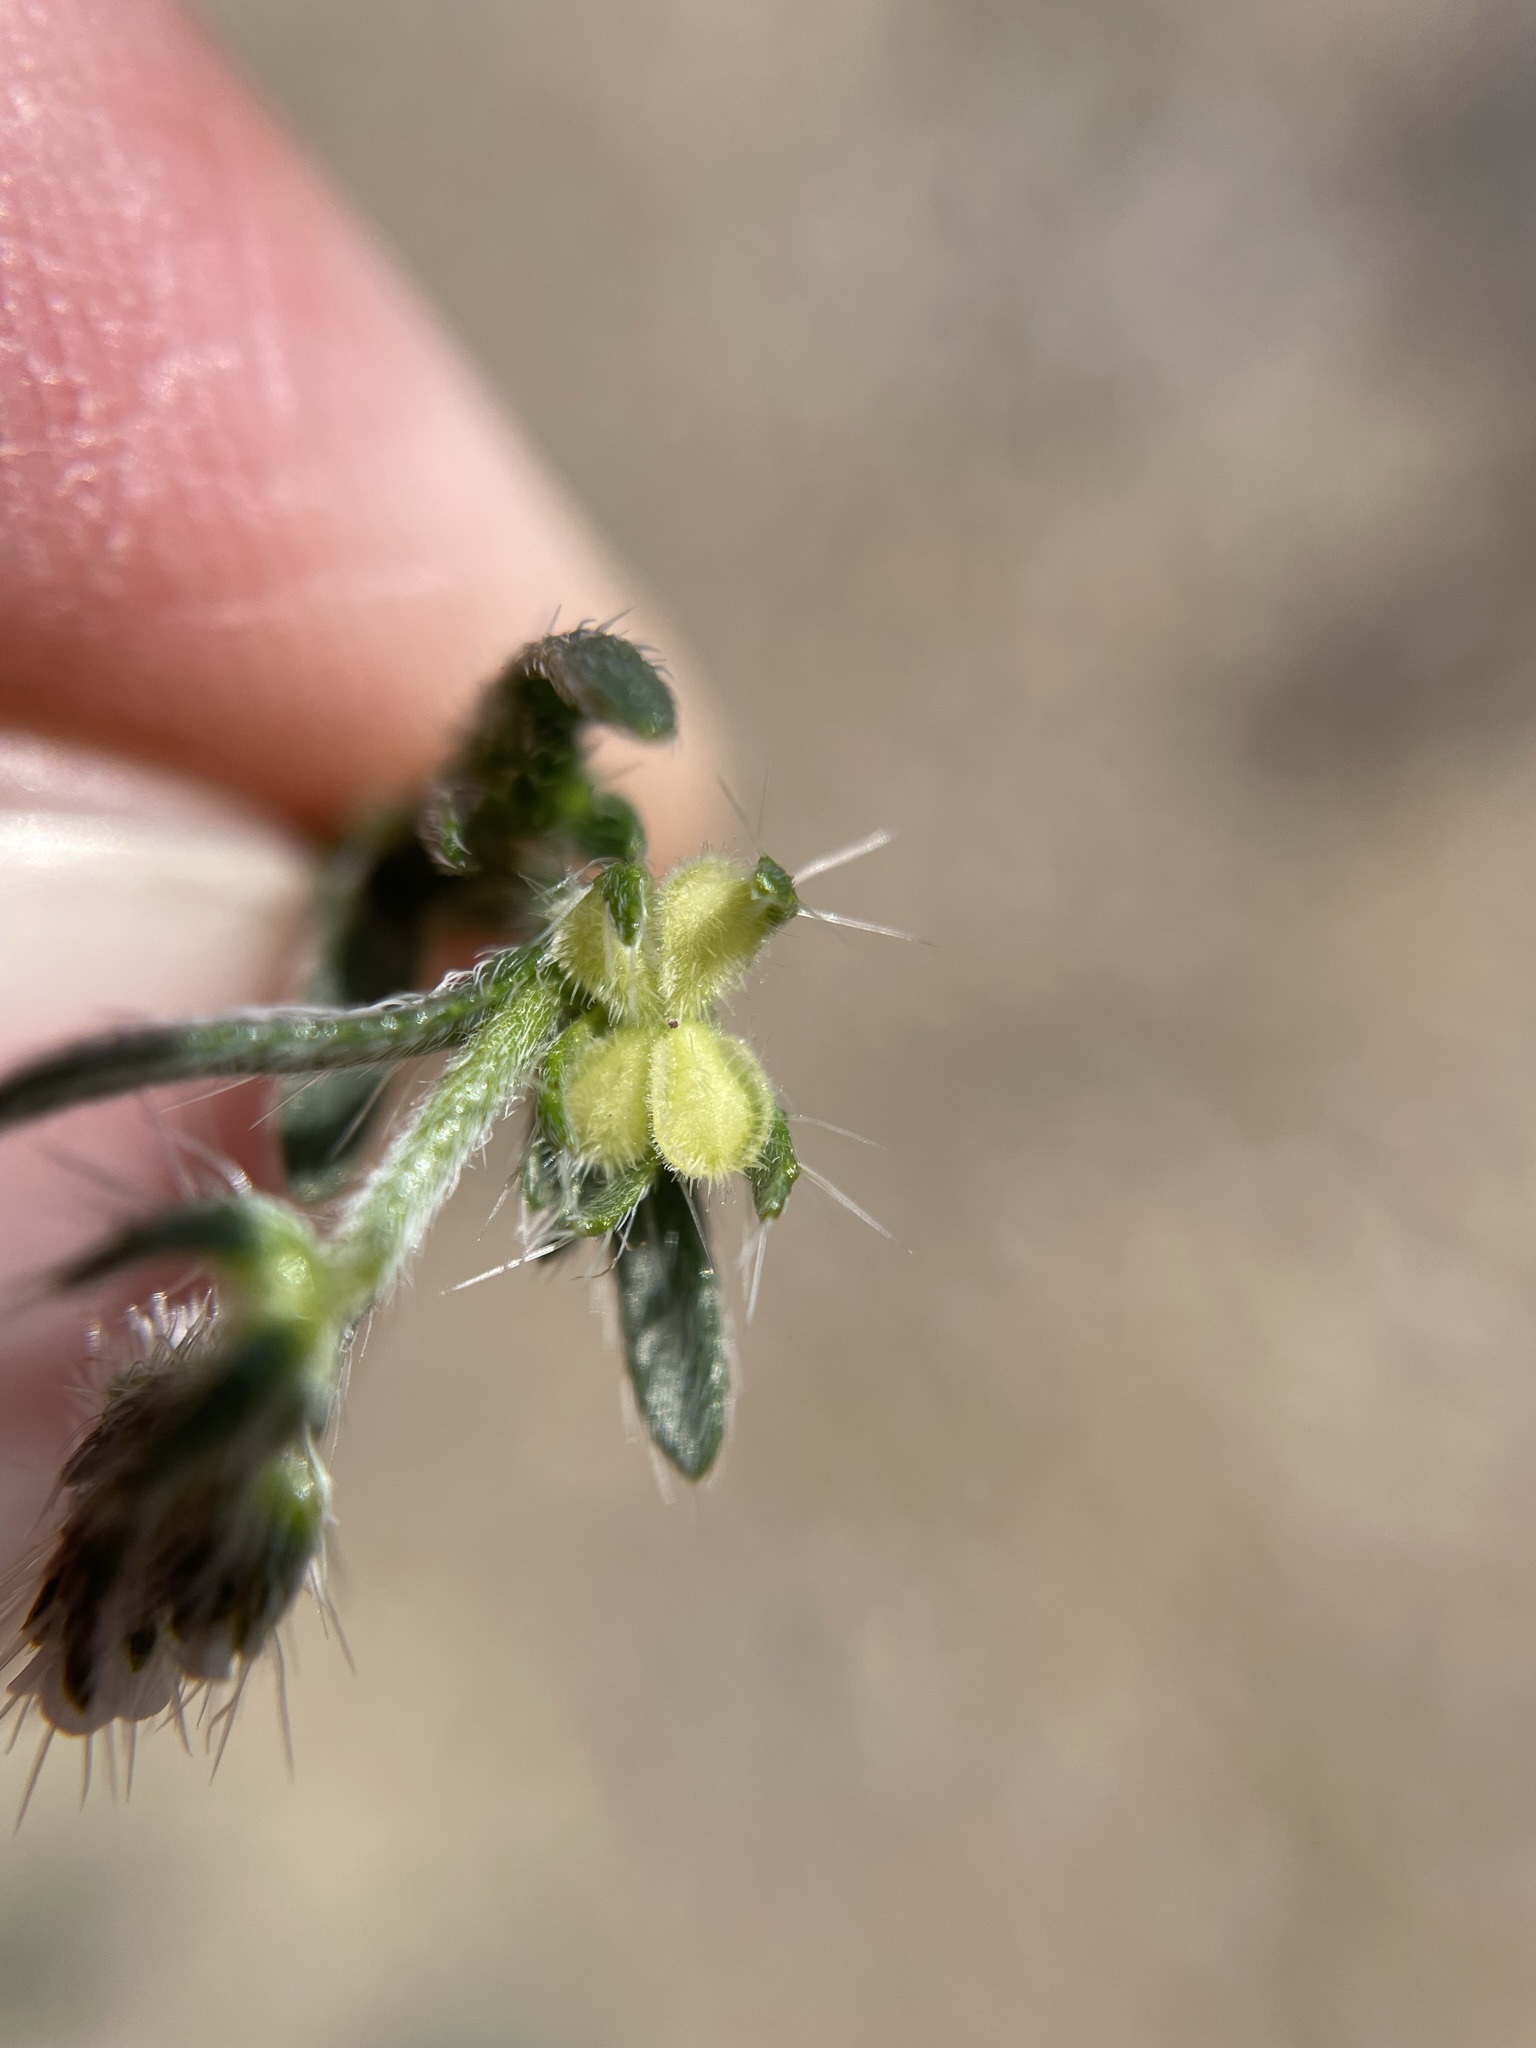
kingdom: Plantae
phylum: Tracheophyta
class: Magnoliopsida
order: Boraginales
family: Boraginaceae
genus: Pectocarya
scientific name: Pectocarya setosa
